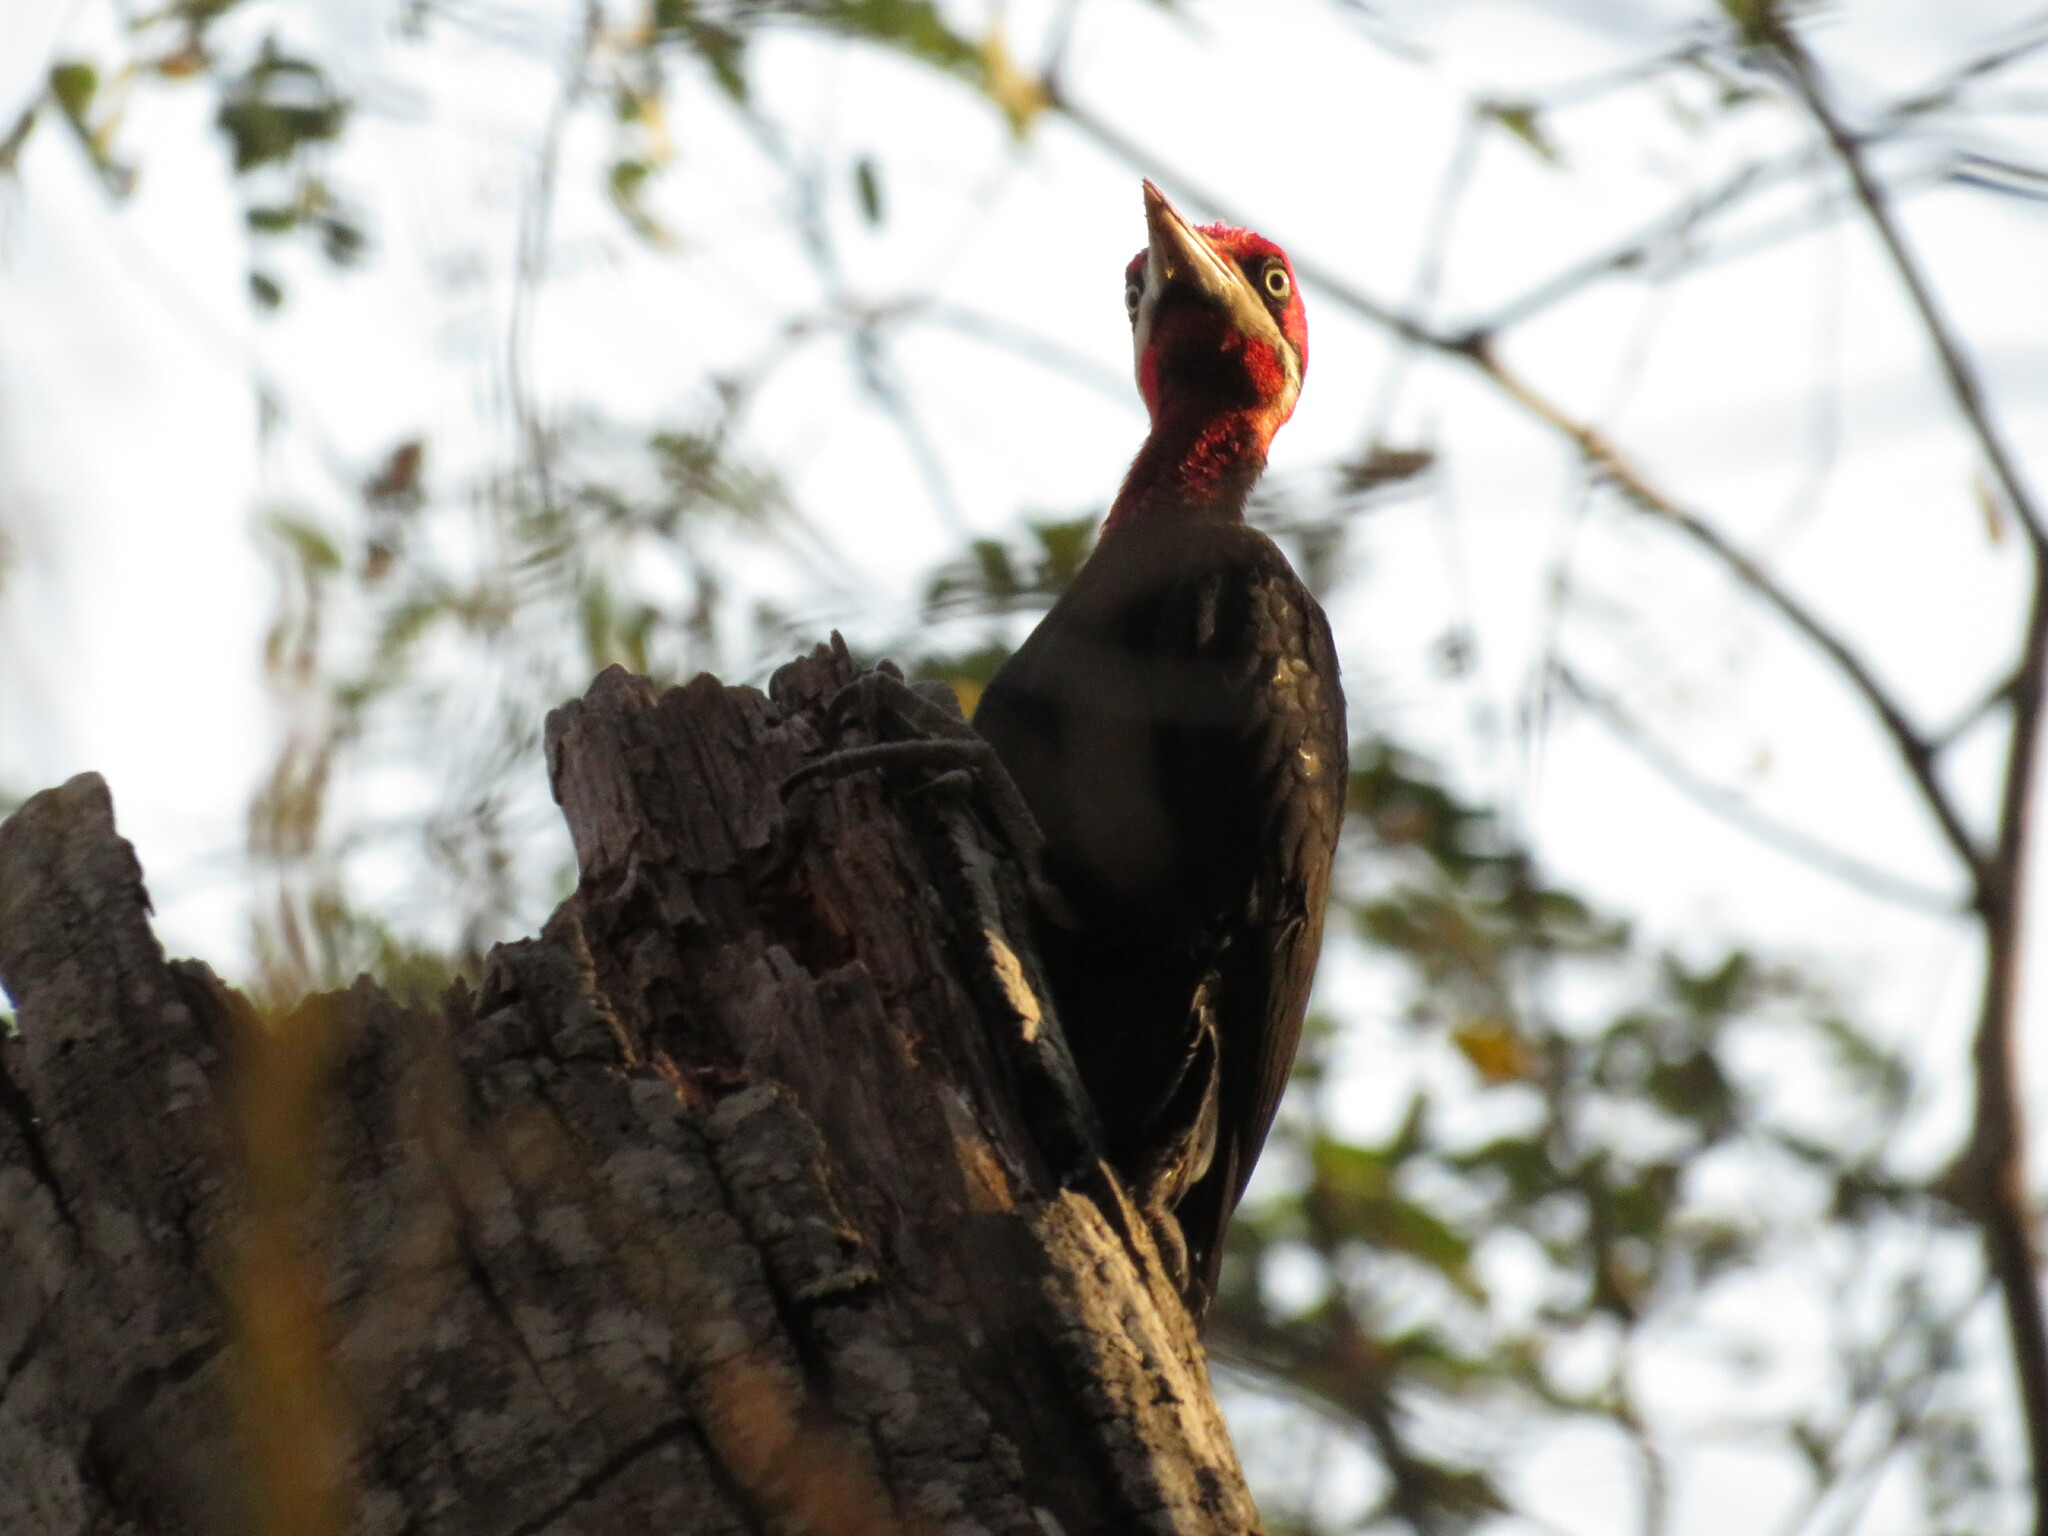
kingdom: Animalia
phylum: Chordata
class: Aves
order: Piciformes
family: Picidae
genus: Campephilus
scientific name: Campephilus leucopogon
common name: Cream-backed woodpecker
